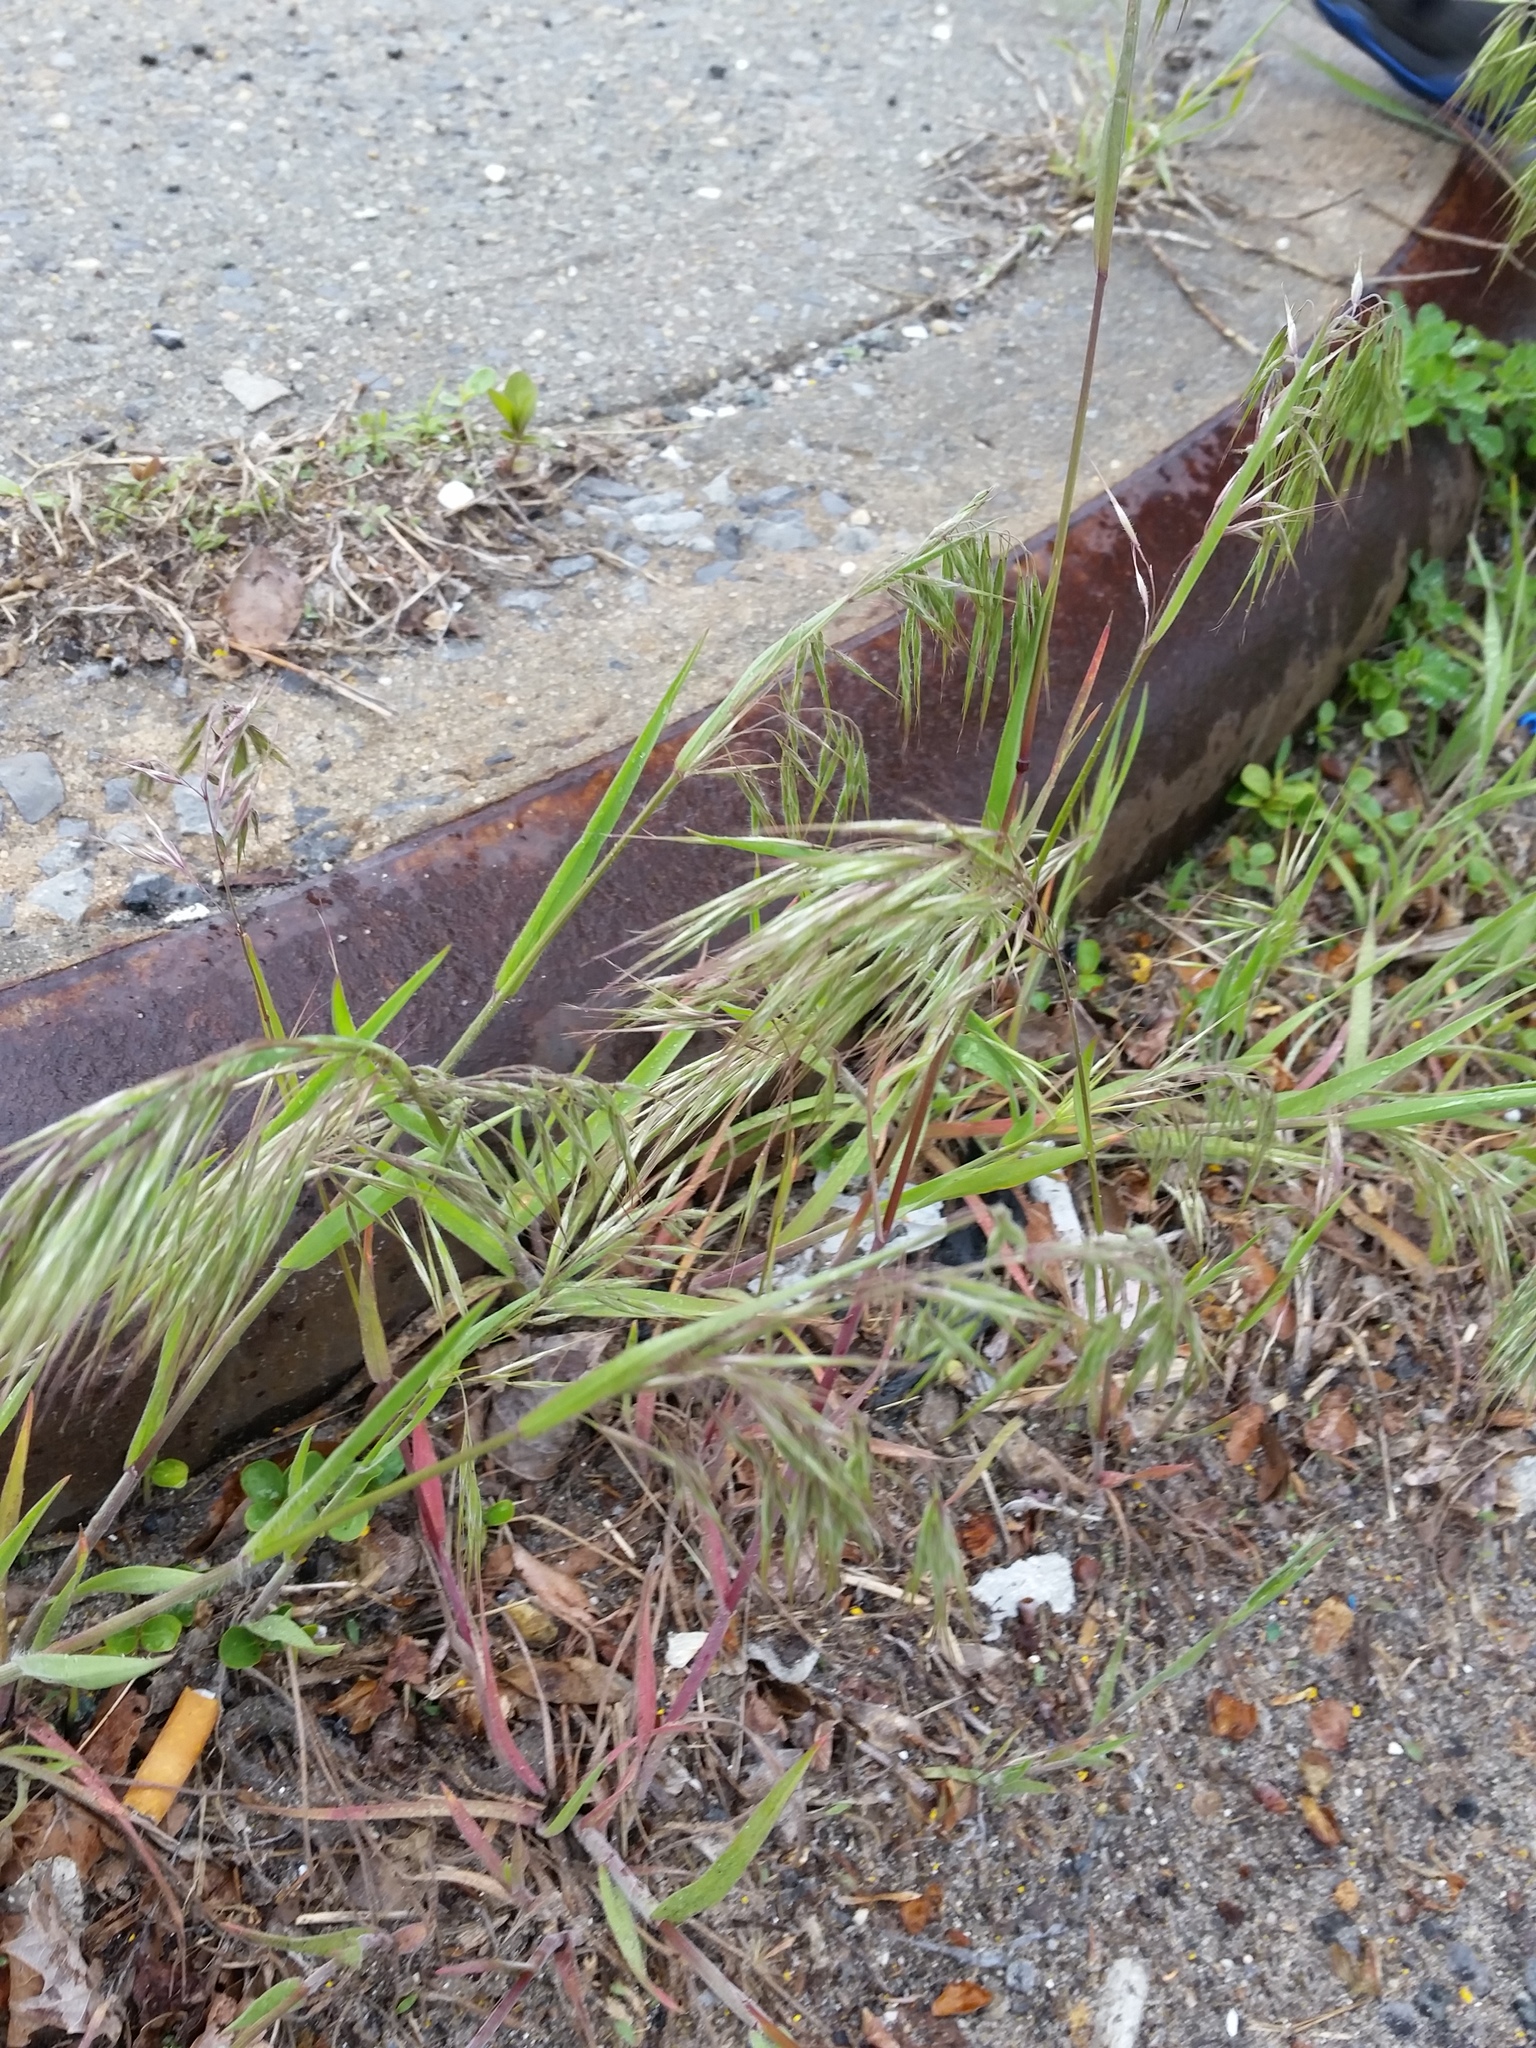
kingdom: Plantae
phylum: Tracheophyta
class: Liliopsida
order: Poales
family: Poaceae
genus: Bromus
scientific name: Bromus tectorum
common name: Cheatgrass
